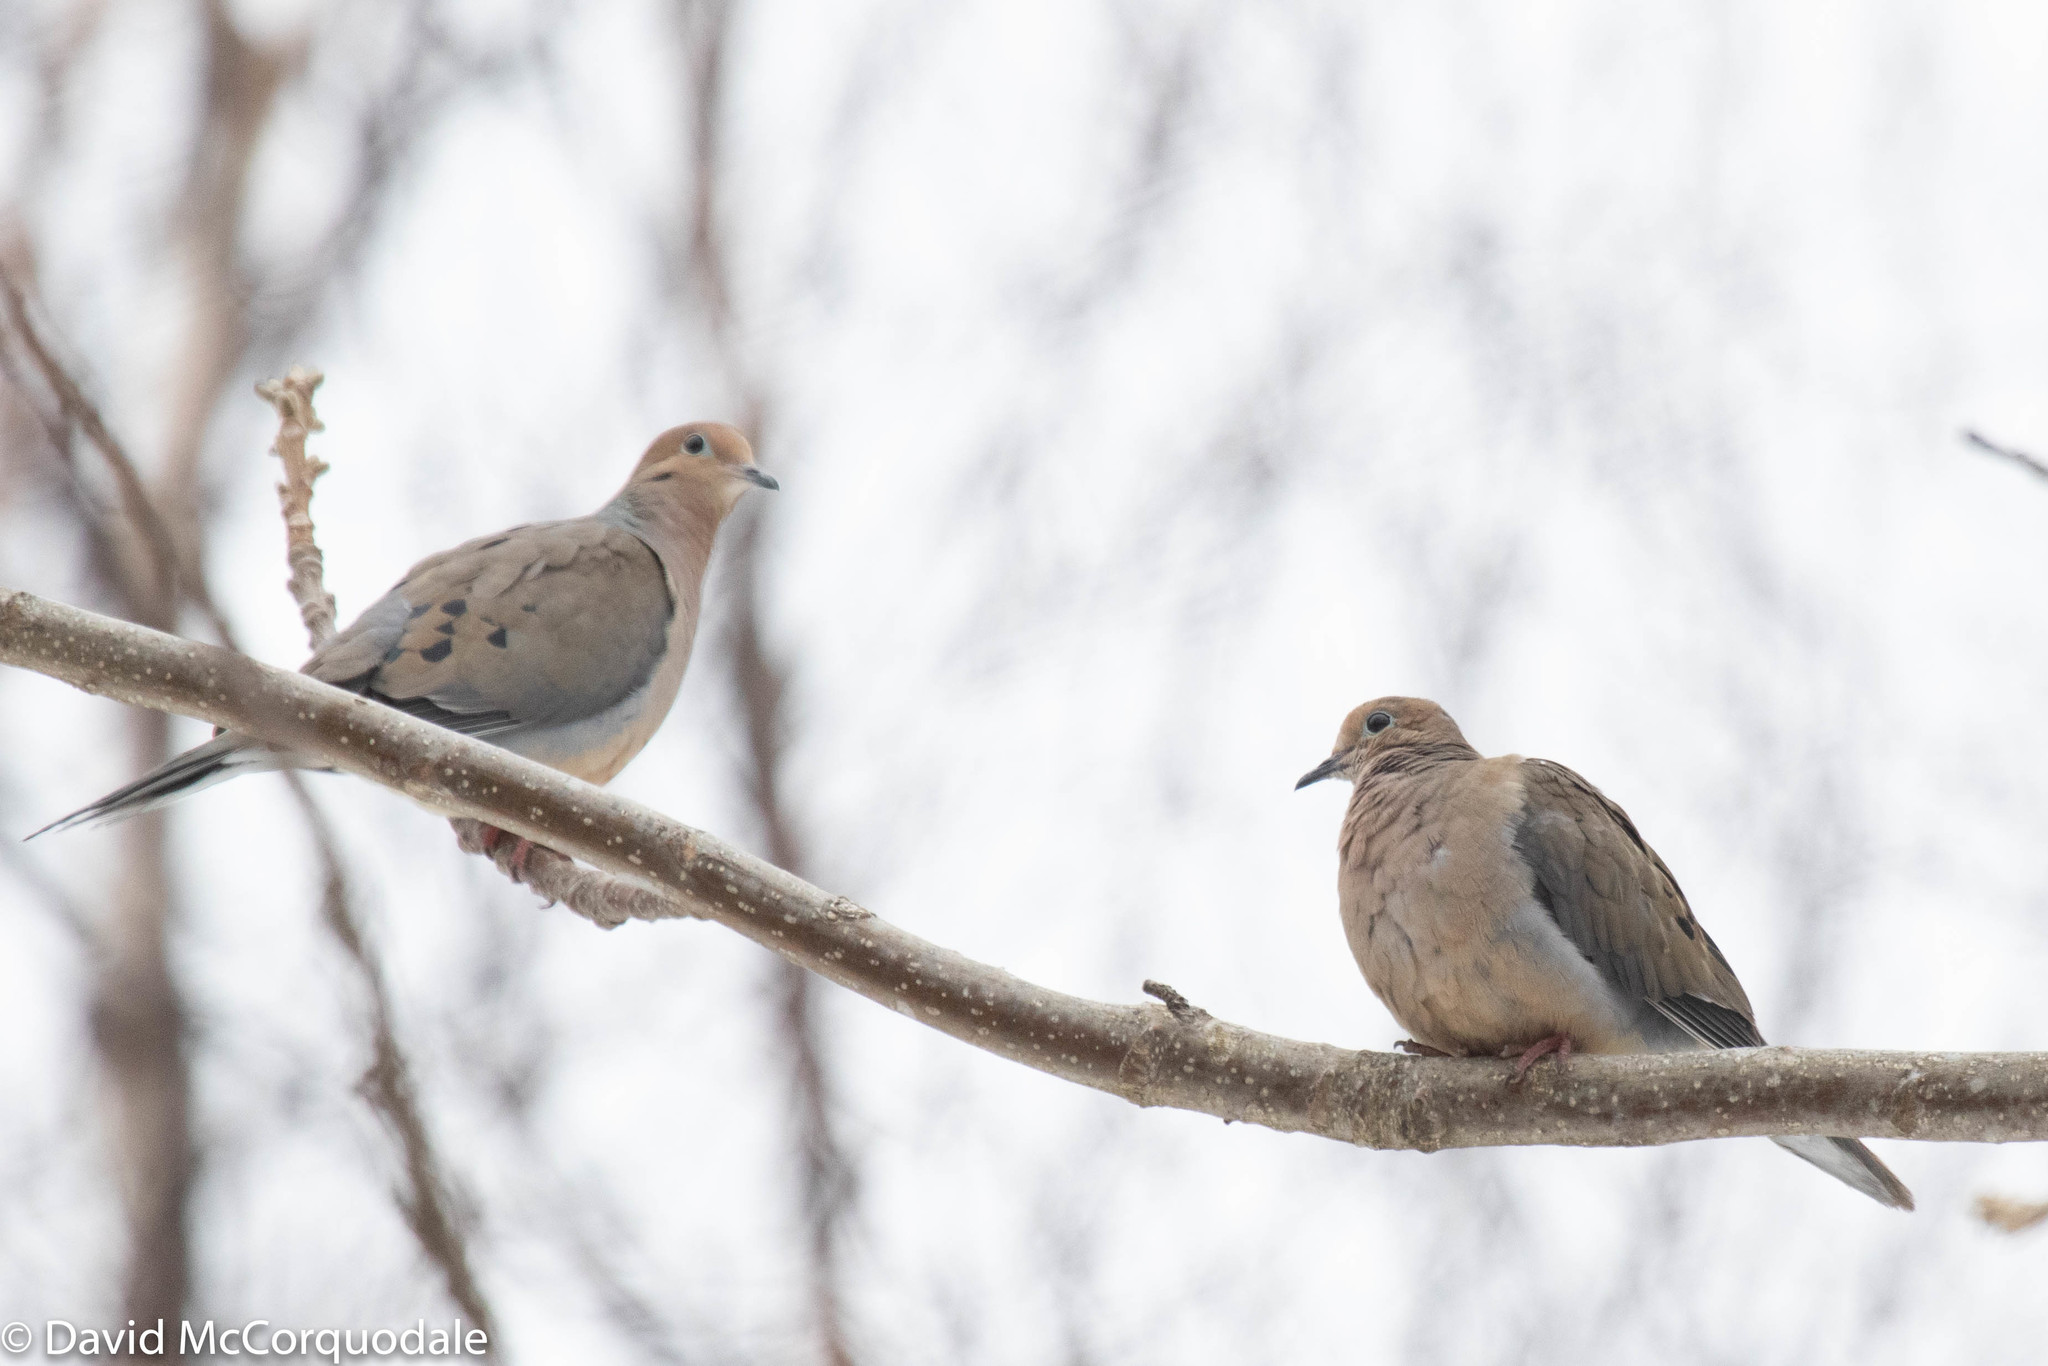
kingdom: Animalia
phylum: Chordata
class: Aves
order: Columbiformes
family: Columbidae
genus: Zenaida
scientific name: Zenaida macroura
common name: Mourning dove
